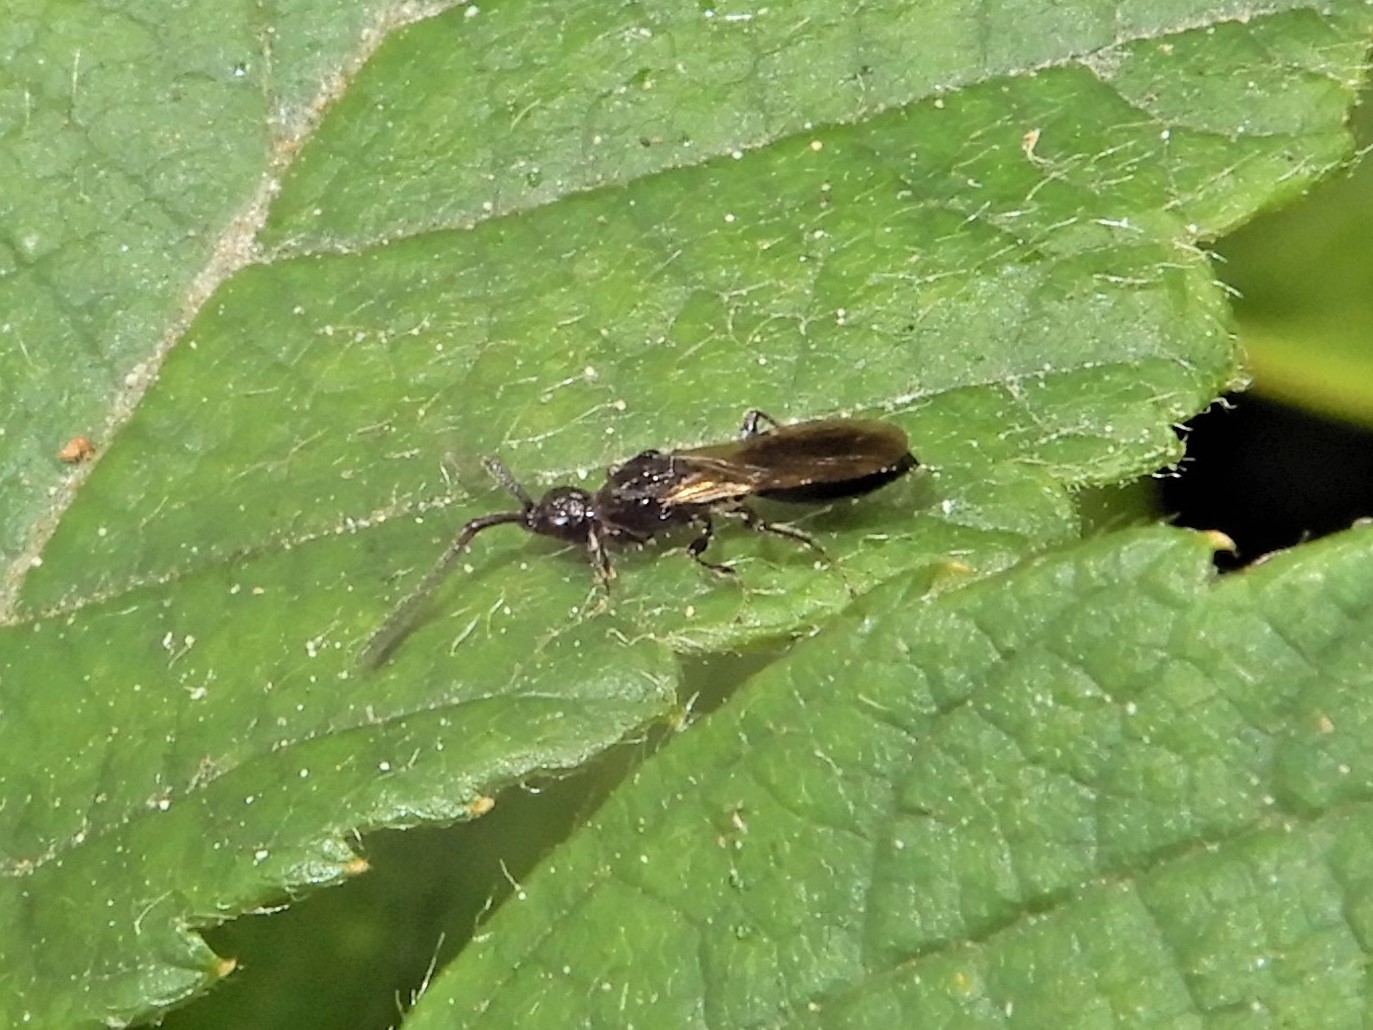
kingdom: Animalia
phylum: Arthropoda
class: Insecta
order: Hymenoptera
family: Diapriidae
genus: Neurogalesus
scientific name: Neurogalesus carinatus
